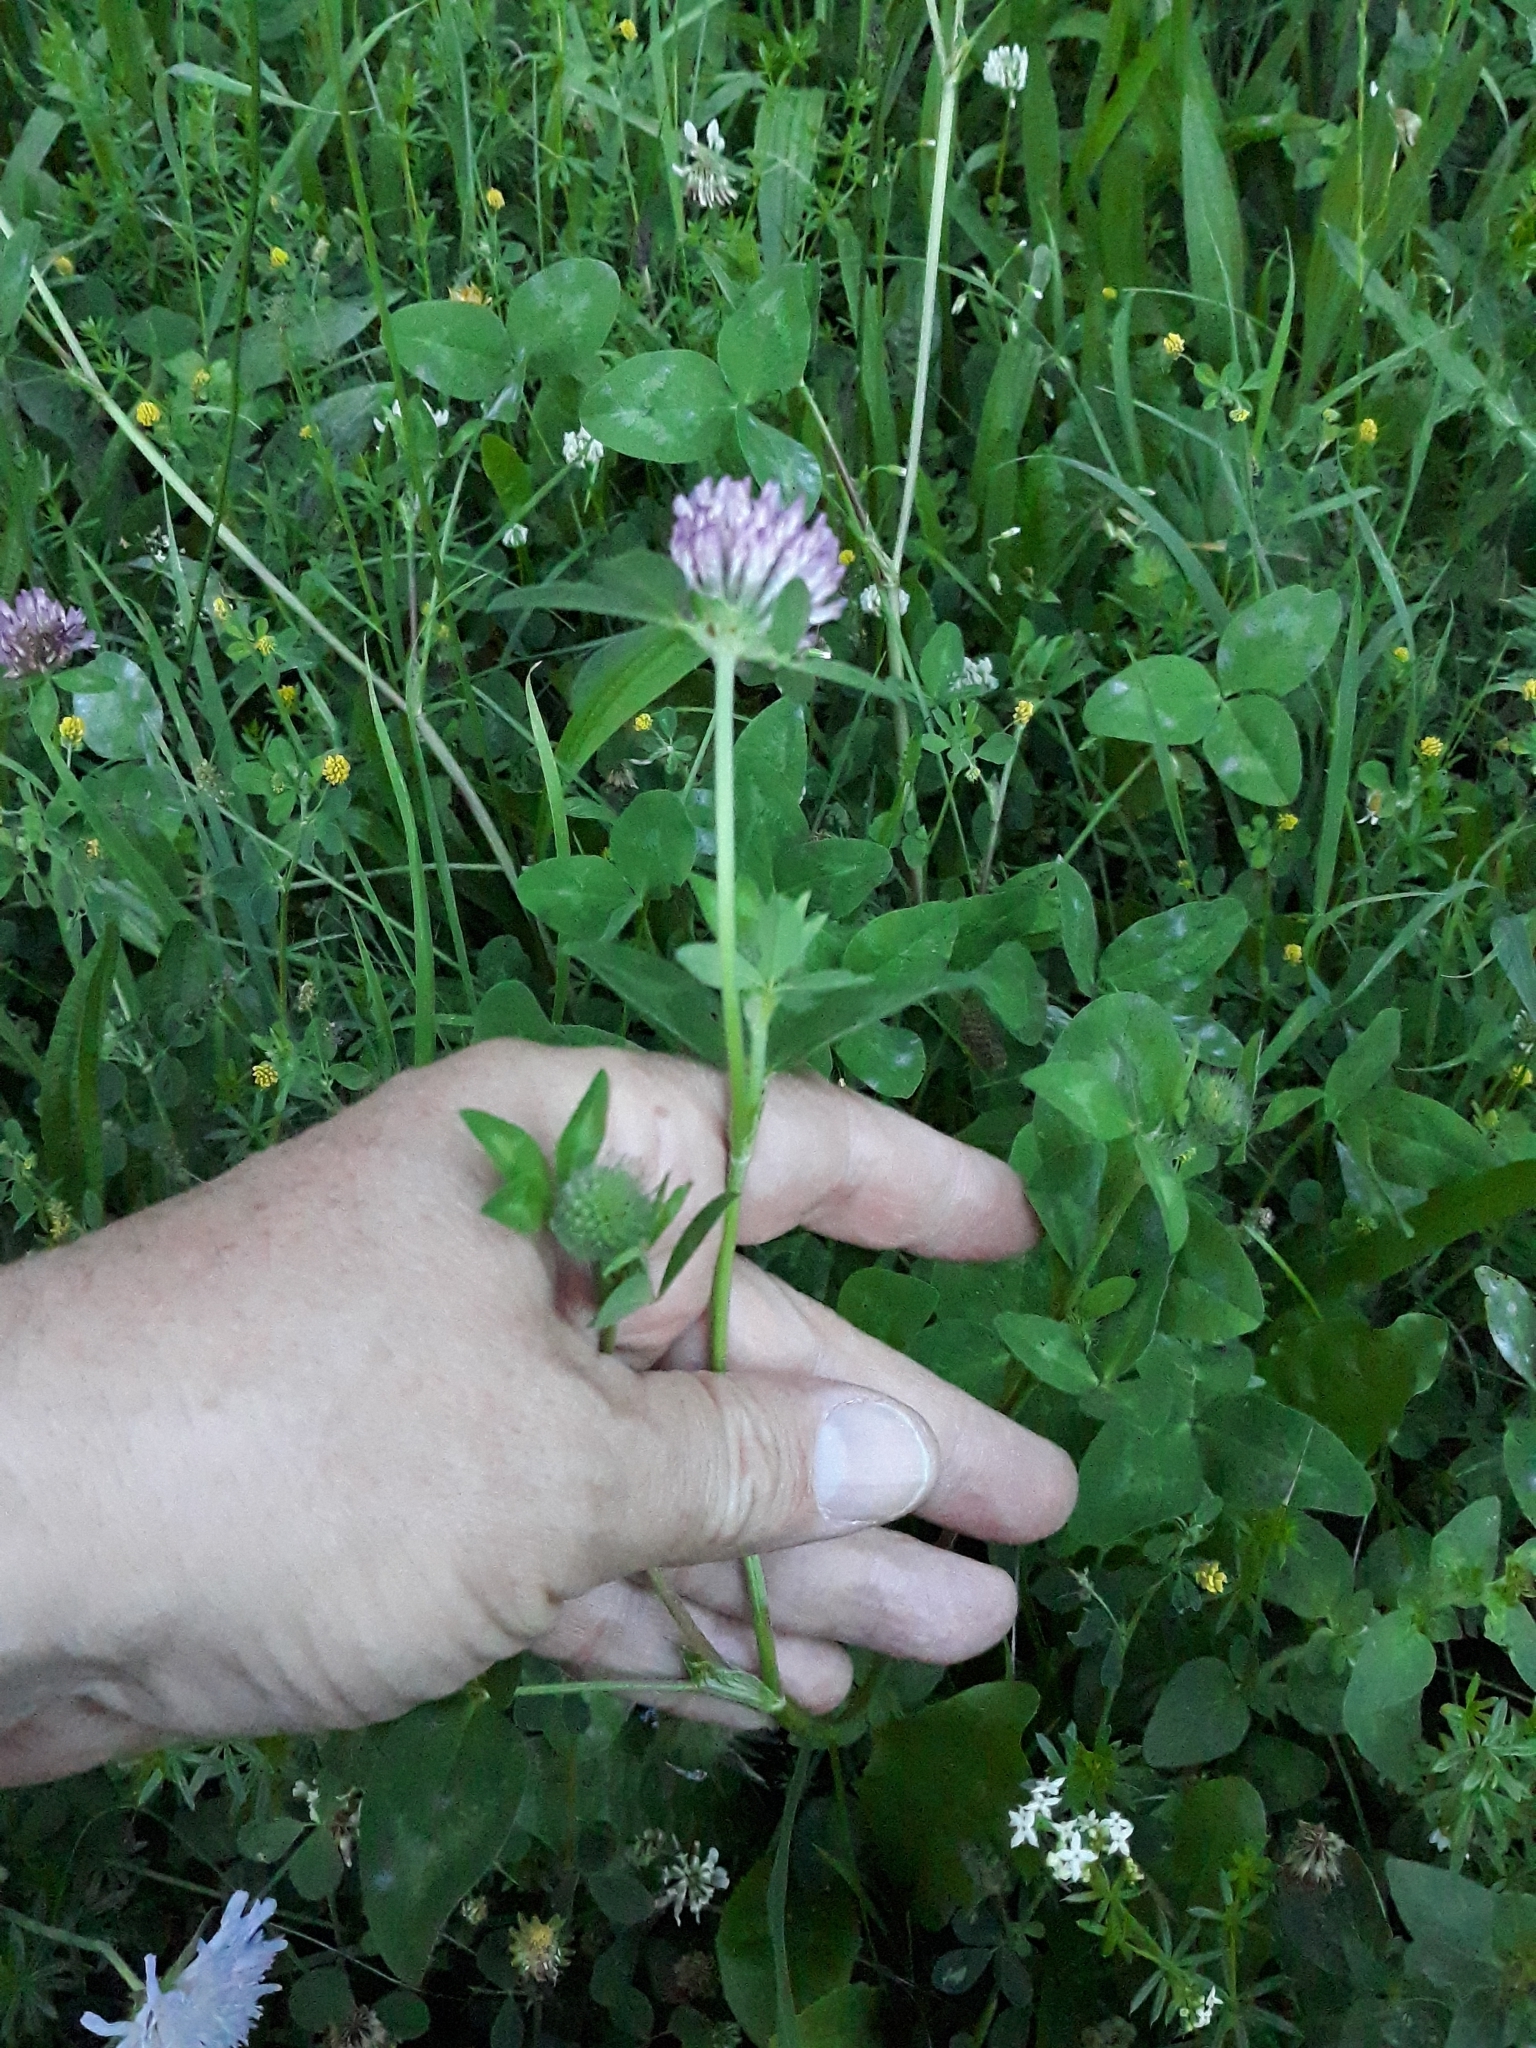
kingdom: Plantae
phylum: Tracheophyta
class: Magnoliopsida
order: Dipsacales
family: Caprifoliaceae
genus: Knautia
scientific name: Knautia arvensis
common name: Field scabiosa
